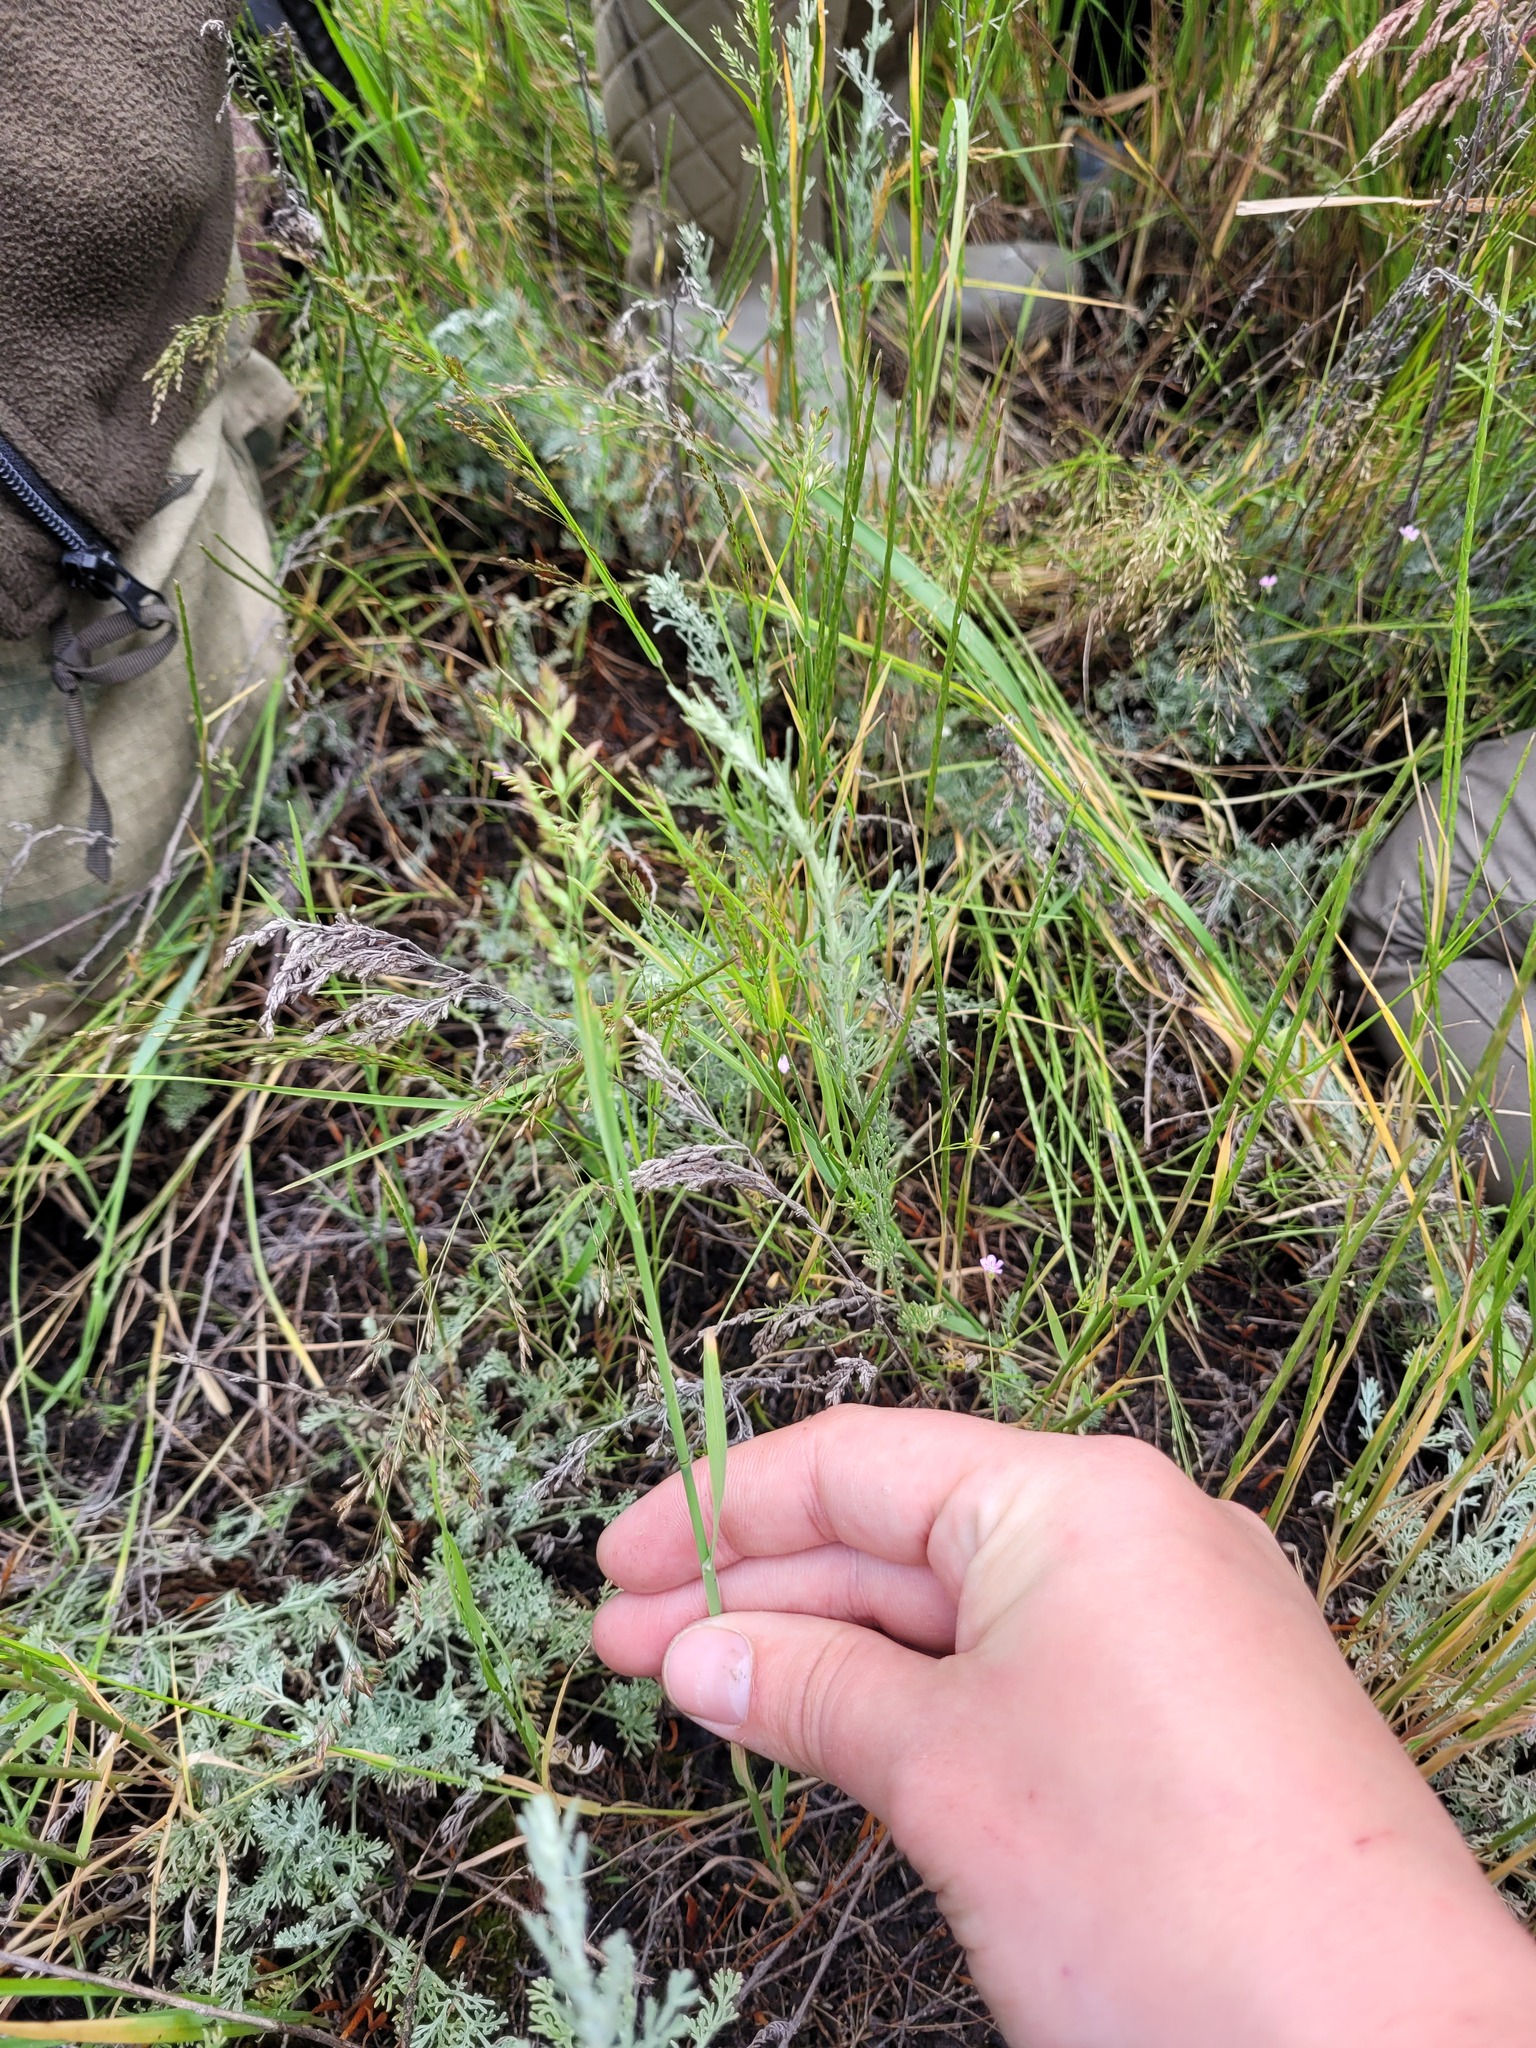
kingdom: Plantae
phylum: Tracheophyta
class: Liliopsida
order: Poales
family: Poaceae
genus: Poa
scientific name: Poa compressa
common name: Canada bluegrass
